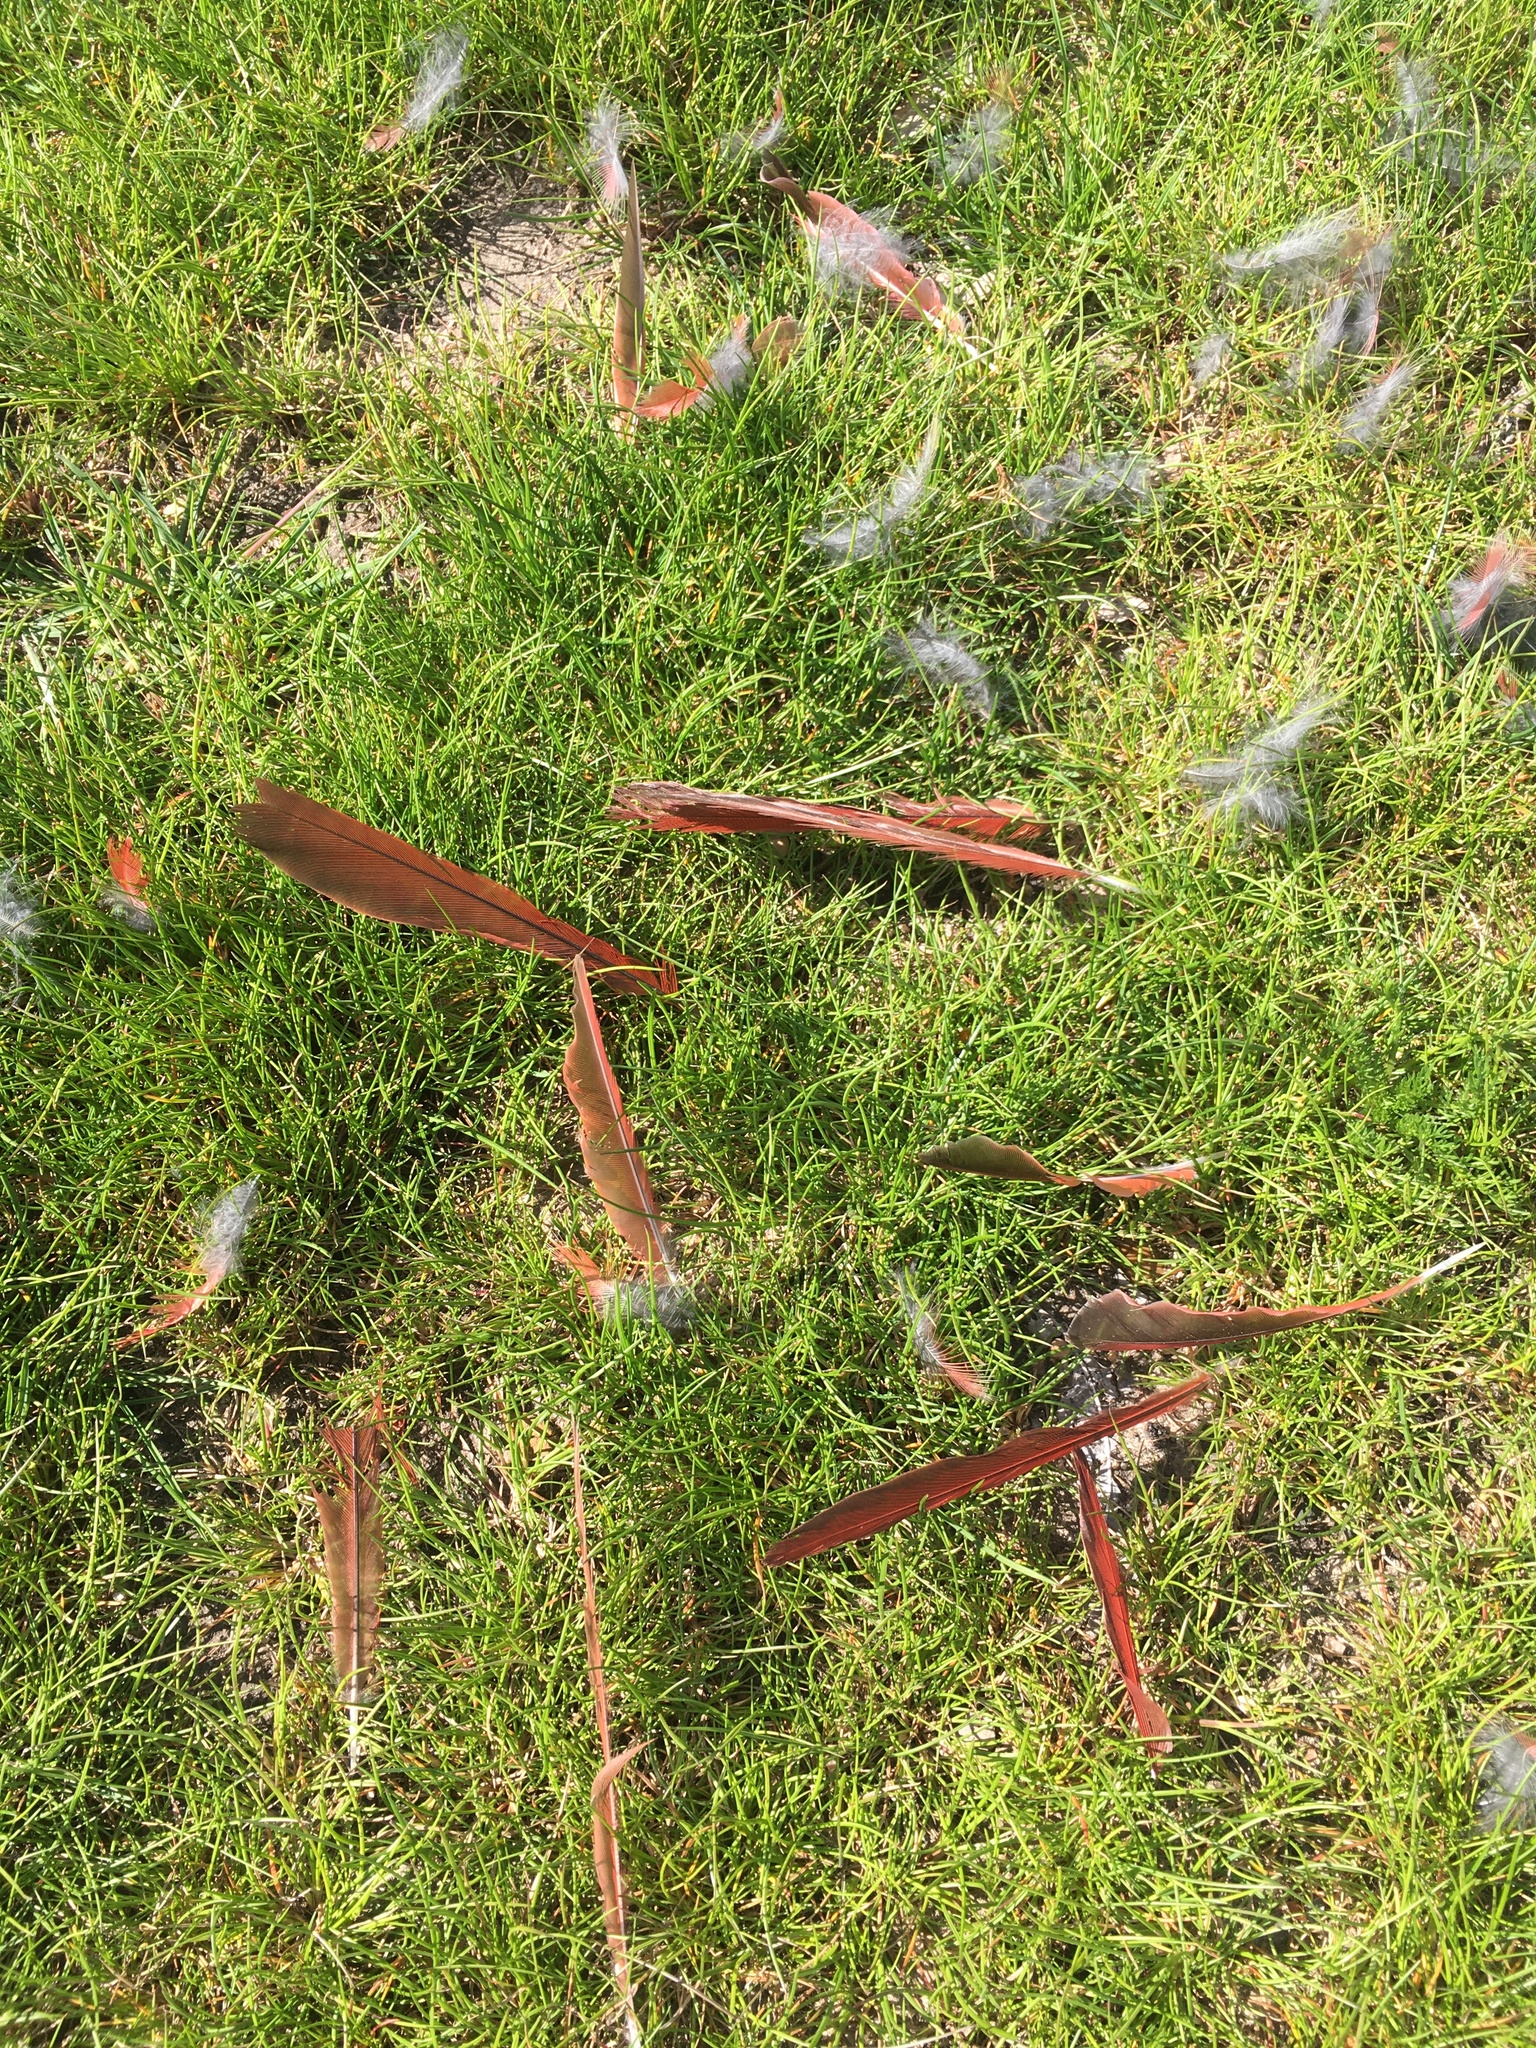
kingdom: Animalia
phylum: Chordata
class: Aves
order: Passeriformes
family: Cardinalidae
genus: Cardinalis
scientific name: Cardinalis cardinalis
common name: Northern cardinal
